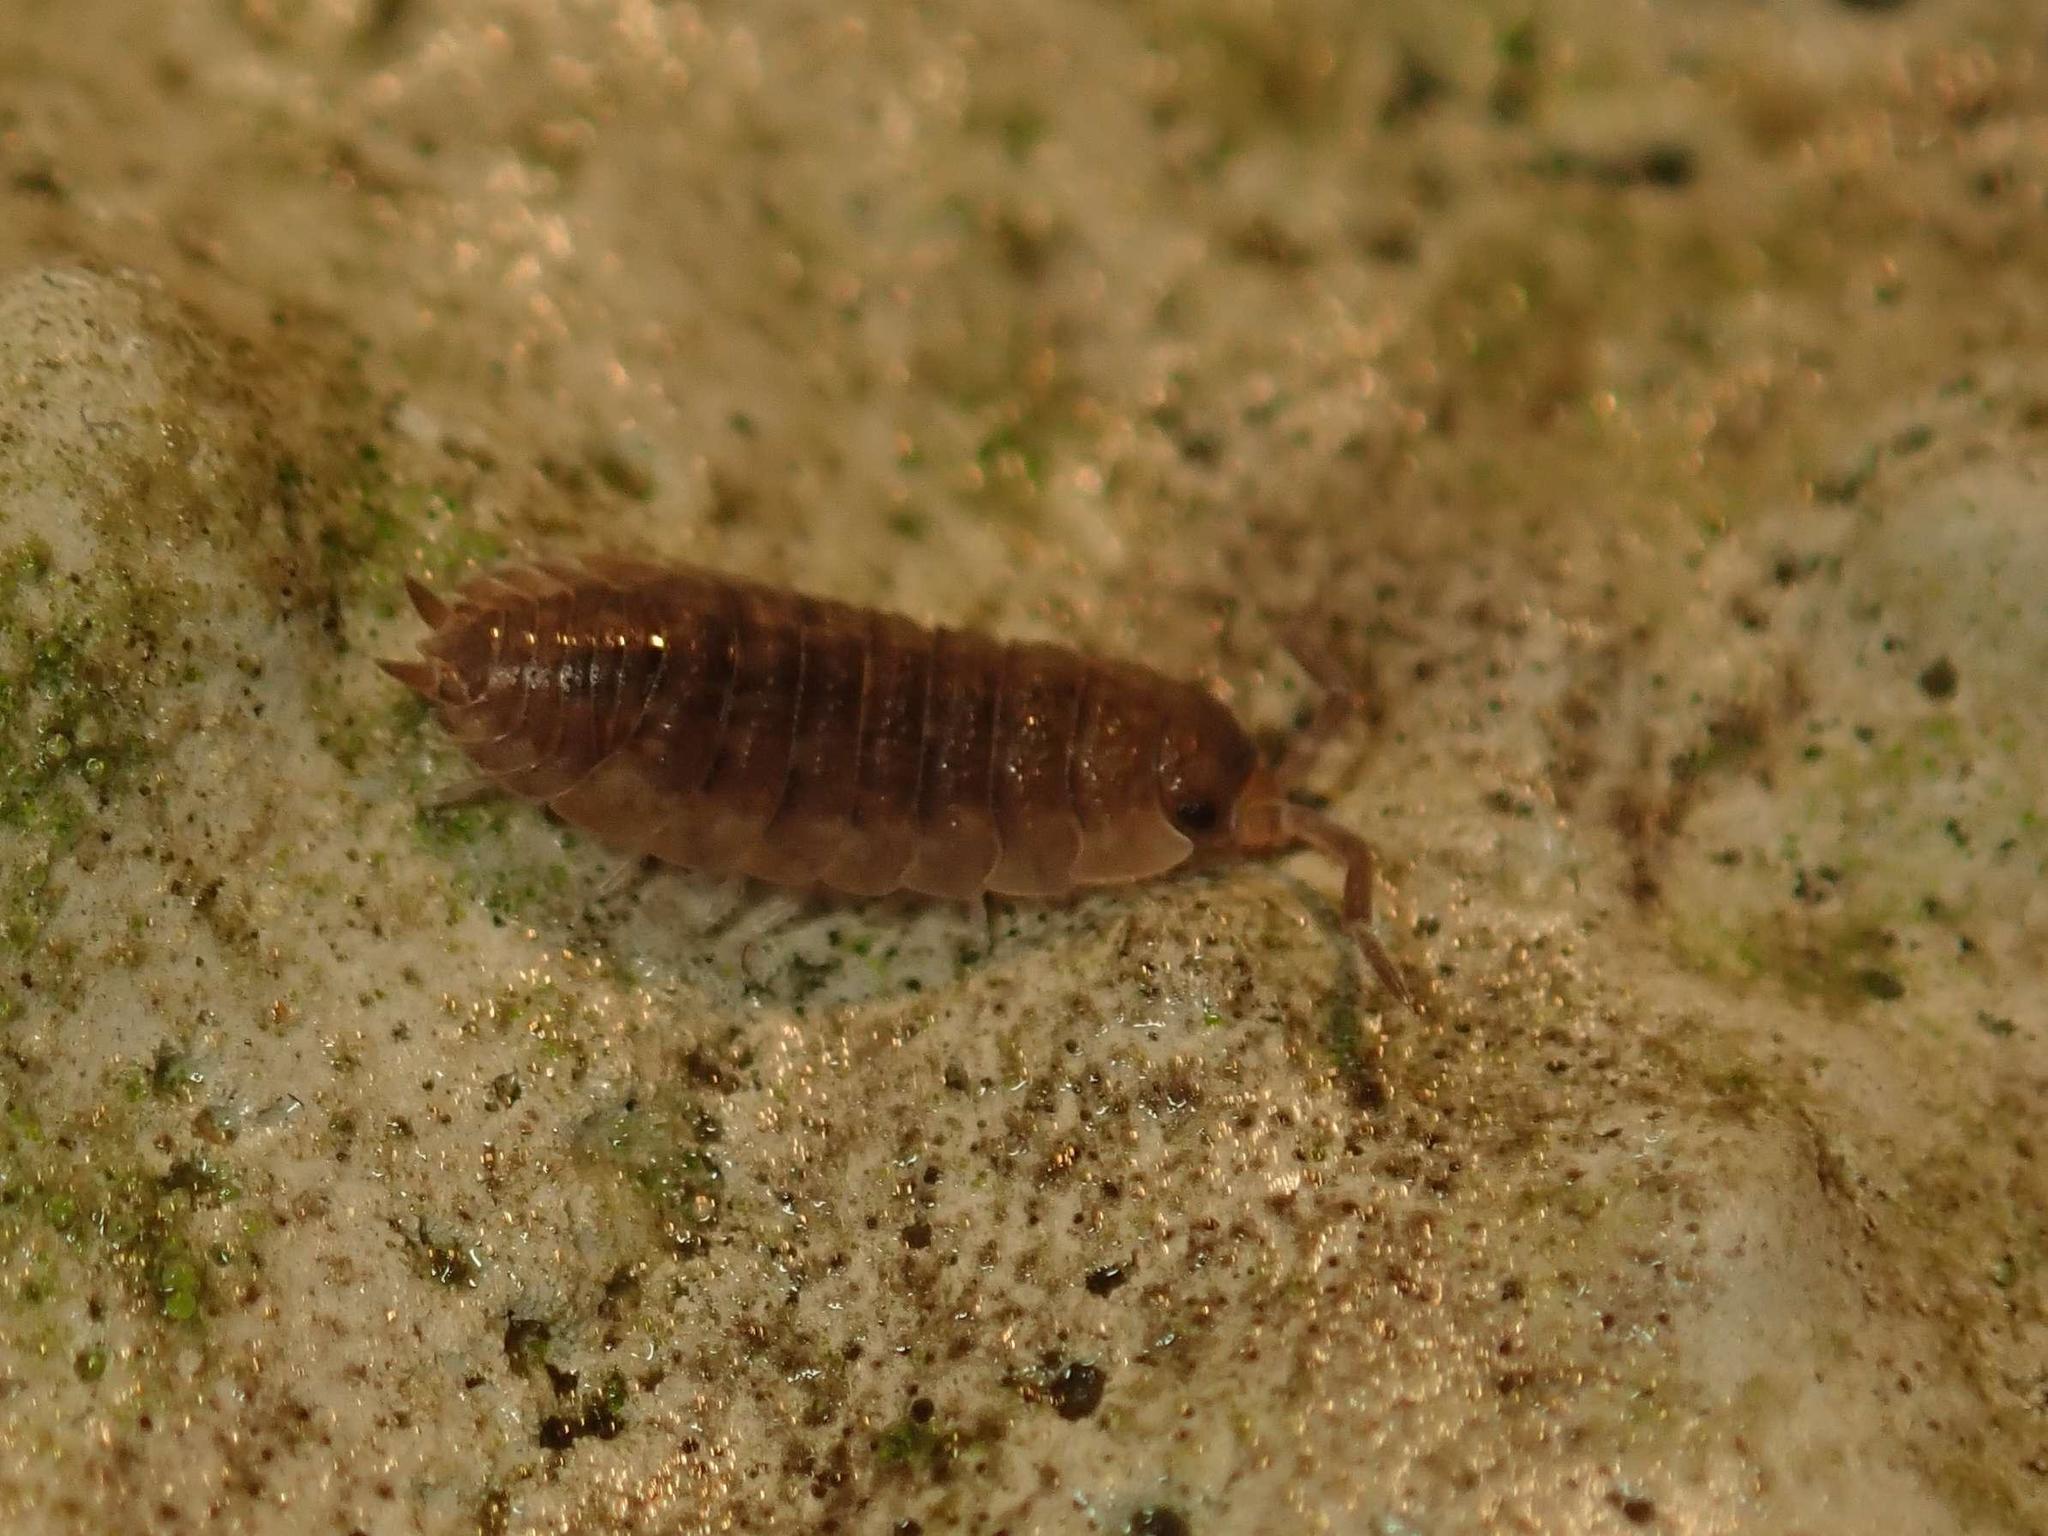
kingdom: Animalia
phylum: Arthropoda
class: Malacostraca
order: Isopoda
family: Porcellionidae
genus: Porcellio
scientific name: Porcellio scaber
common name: Common rough woodlouse
